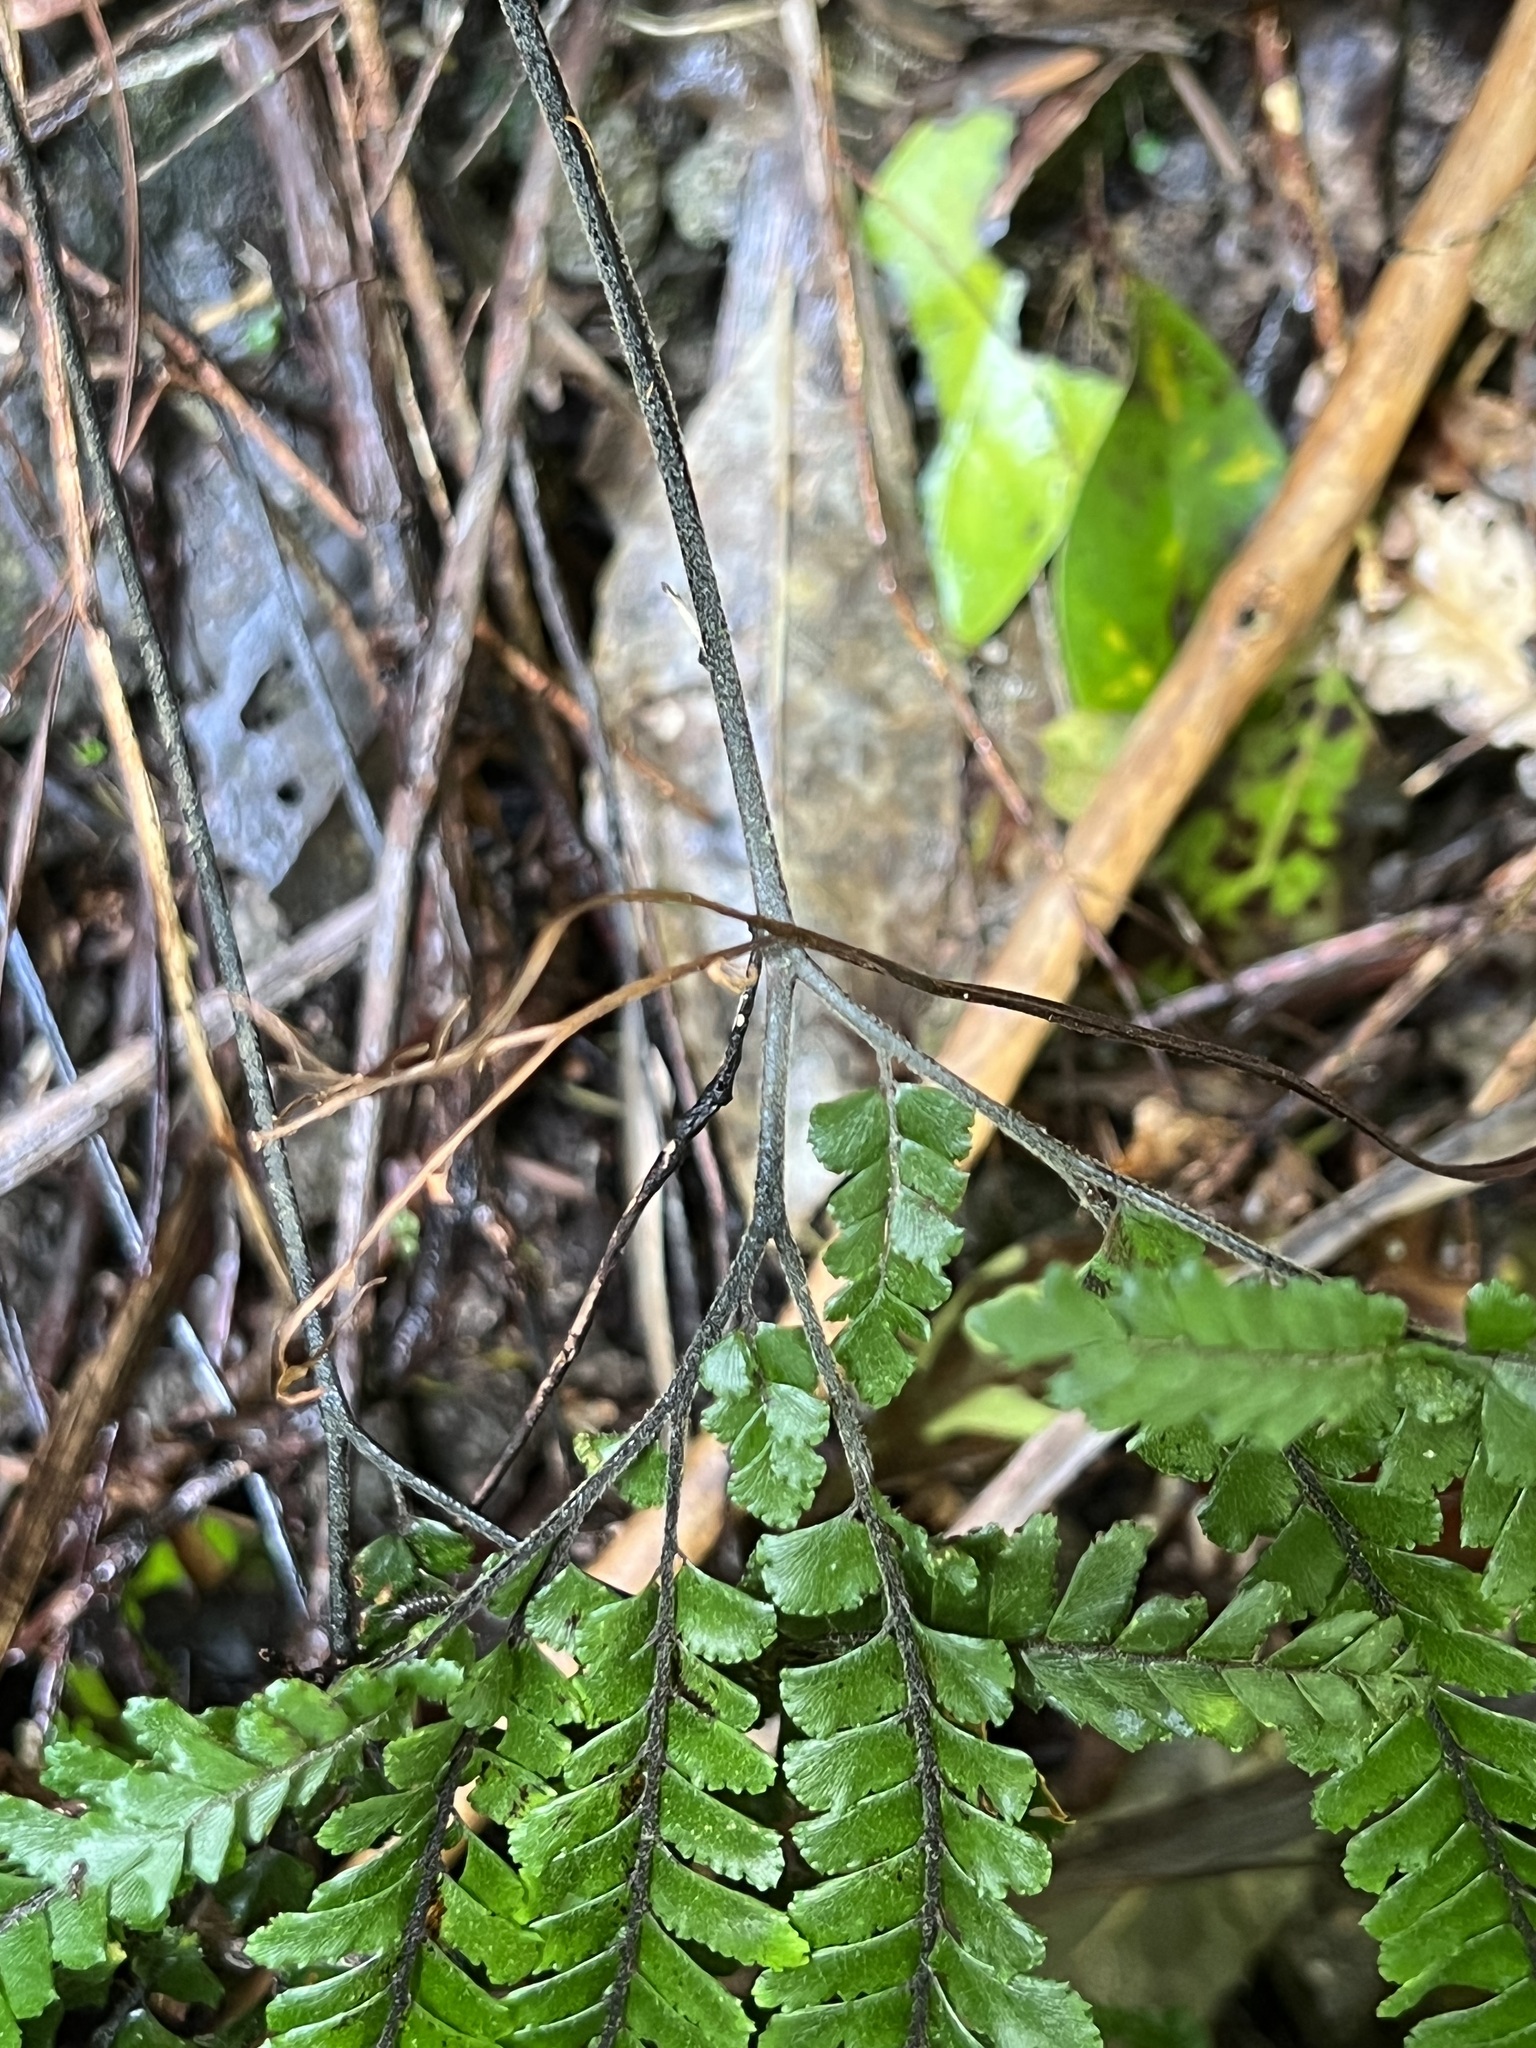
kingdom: Plantae
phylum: Tracheophyta
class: Polypodiopsida
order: Polypodiales
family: Pteridaceae
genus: Adiantum
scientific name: Adiantum hispidulum
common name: Rough maidenhair
